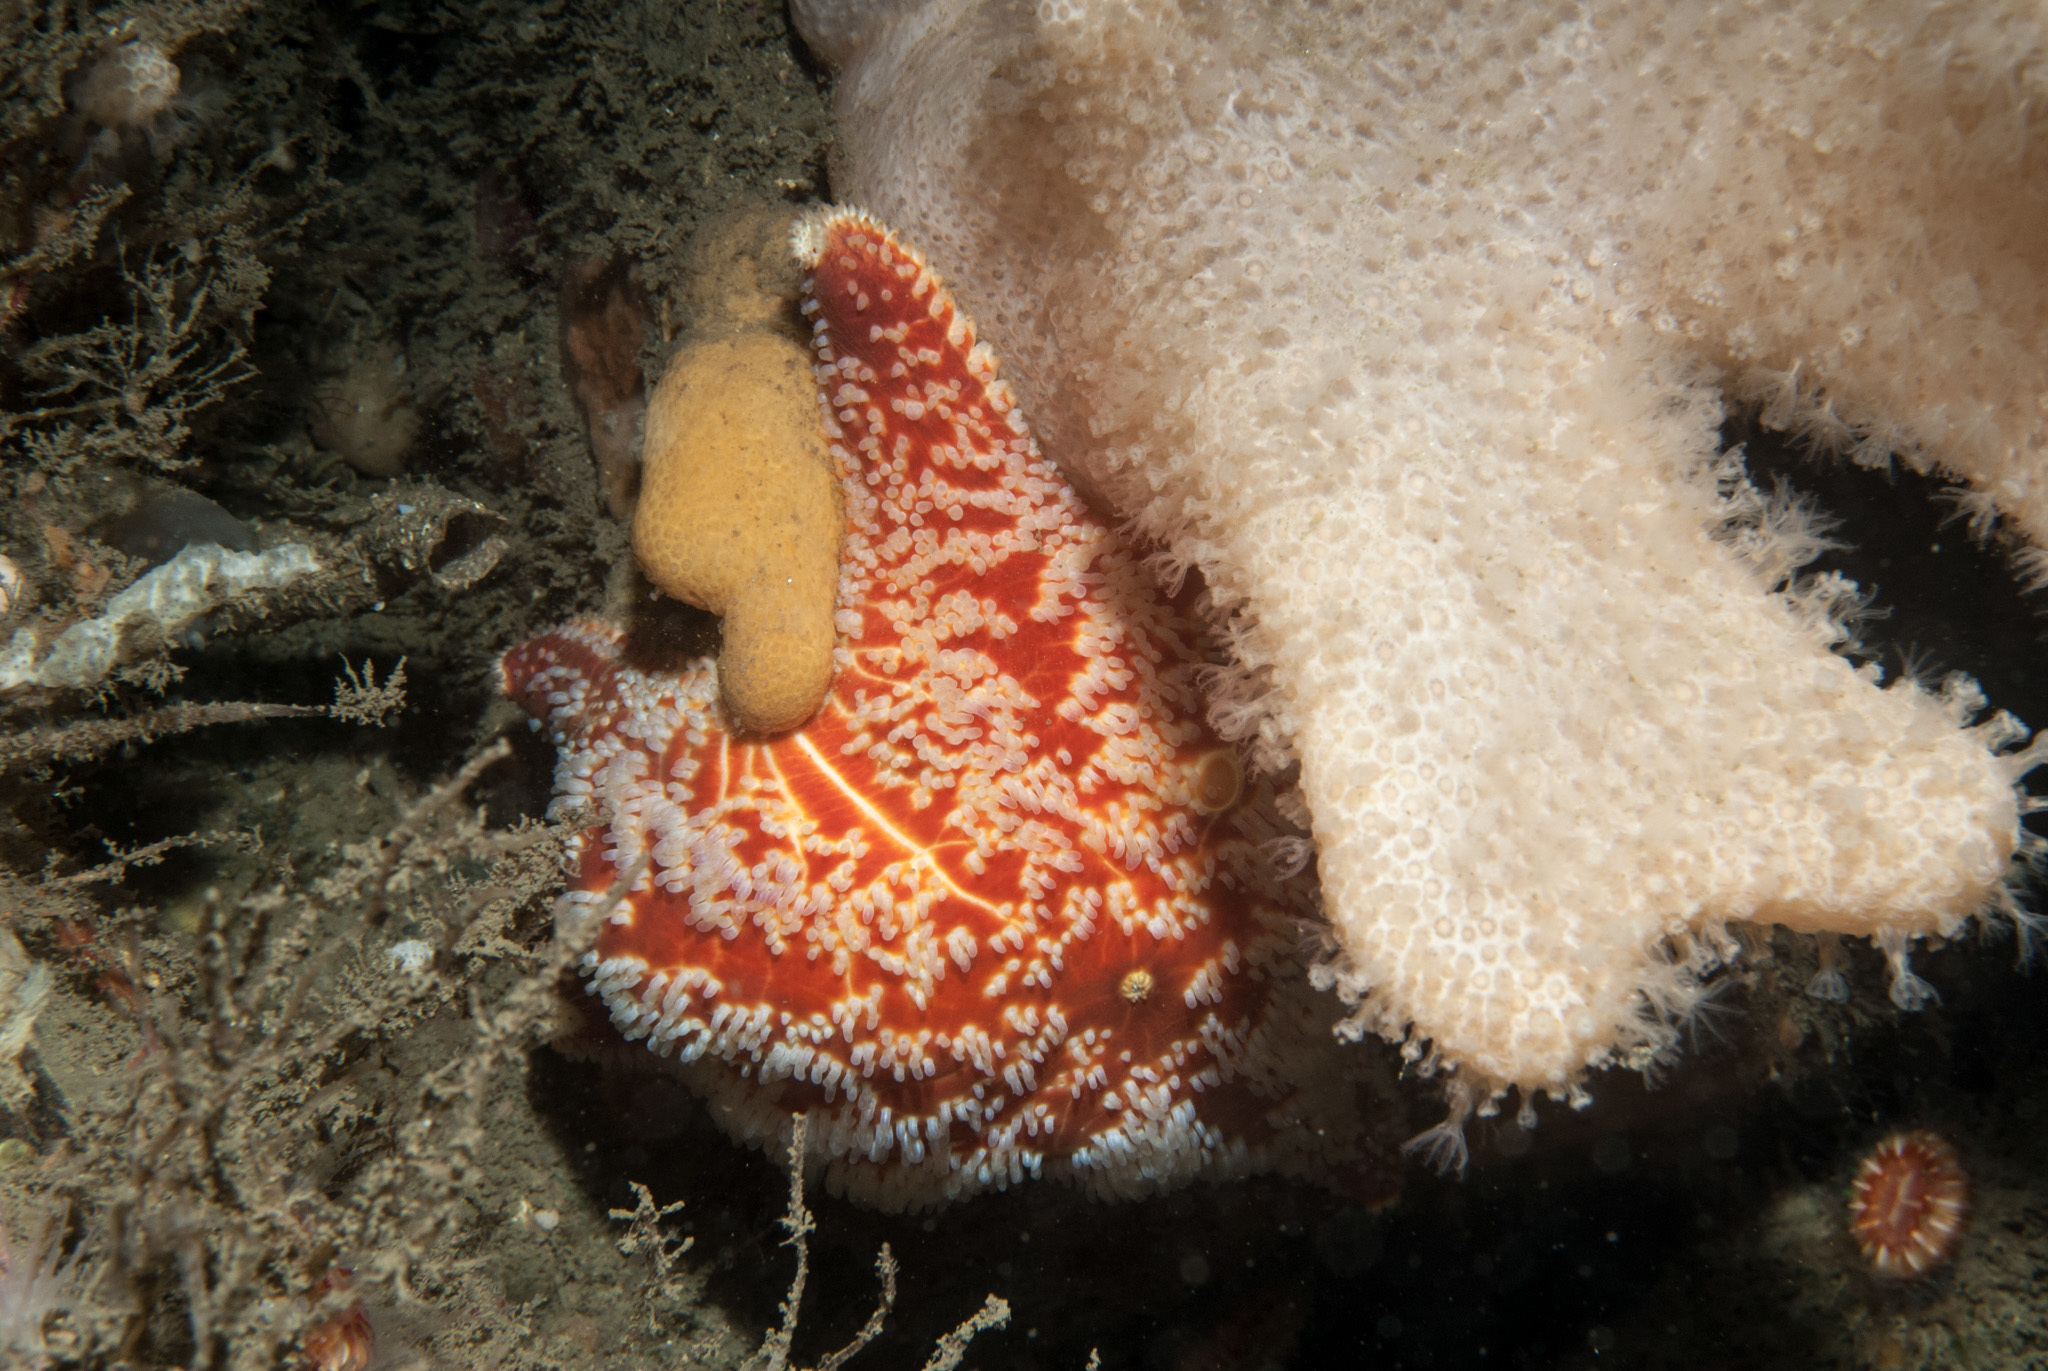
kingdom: Animalia
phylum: Echinodermata
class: Asteroidea
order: Valvatida
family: Poraniidae
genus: Porania
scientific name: Porania pulvillus
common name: Red cushion stat
